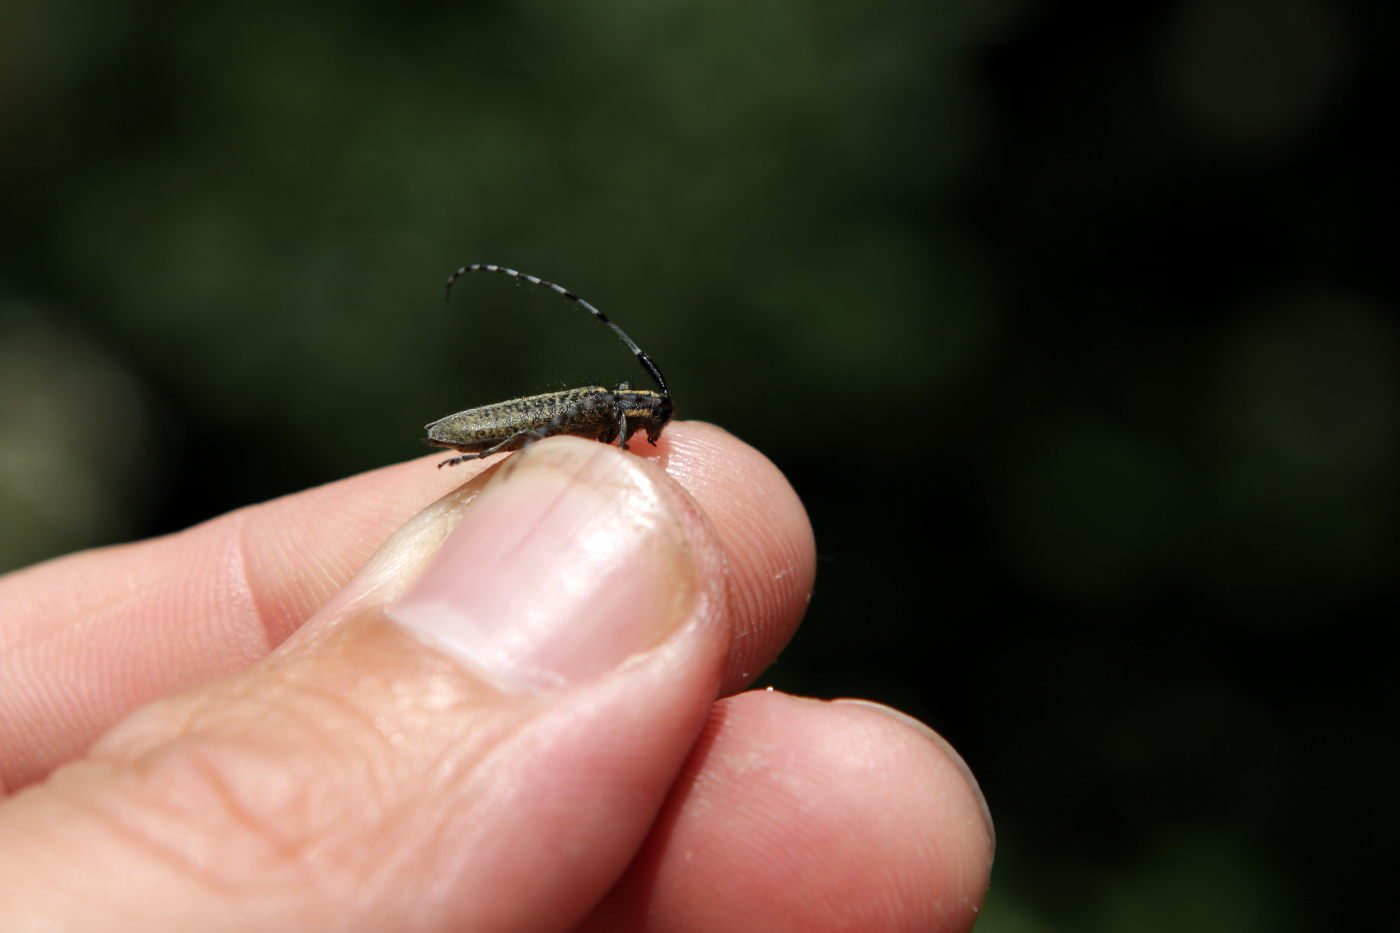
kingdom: Animalia
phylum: Arthropoda
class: Insecta
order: Coleoptera
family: Cerambycidae
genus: Agapanthia
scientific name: Agapanthia villosoviridescens
